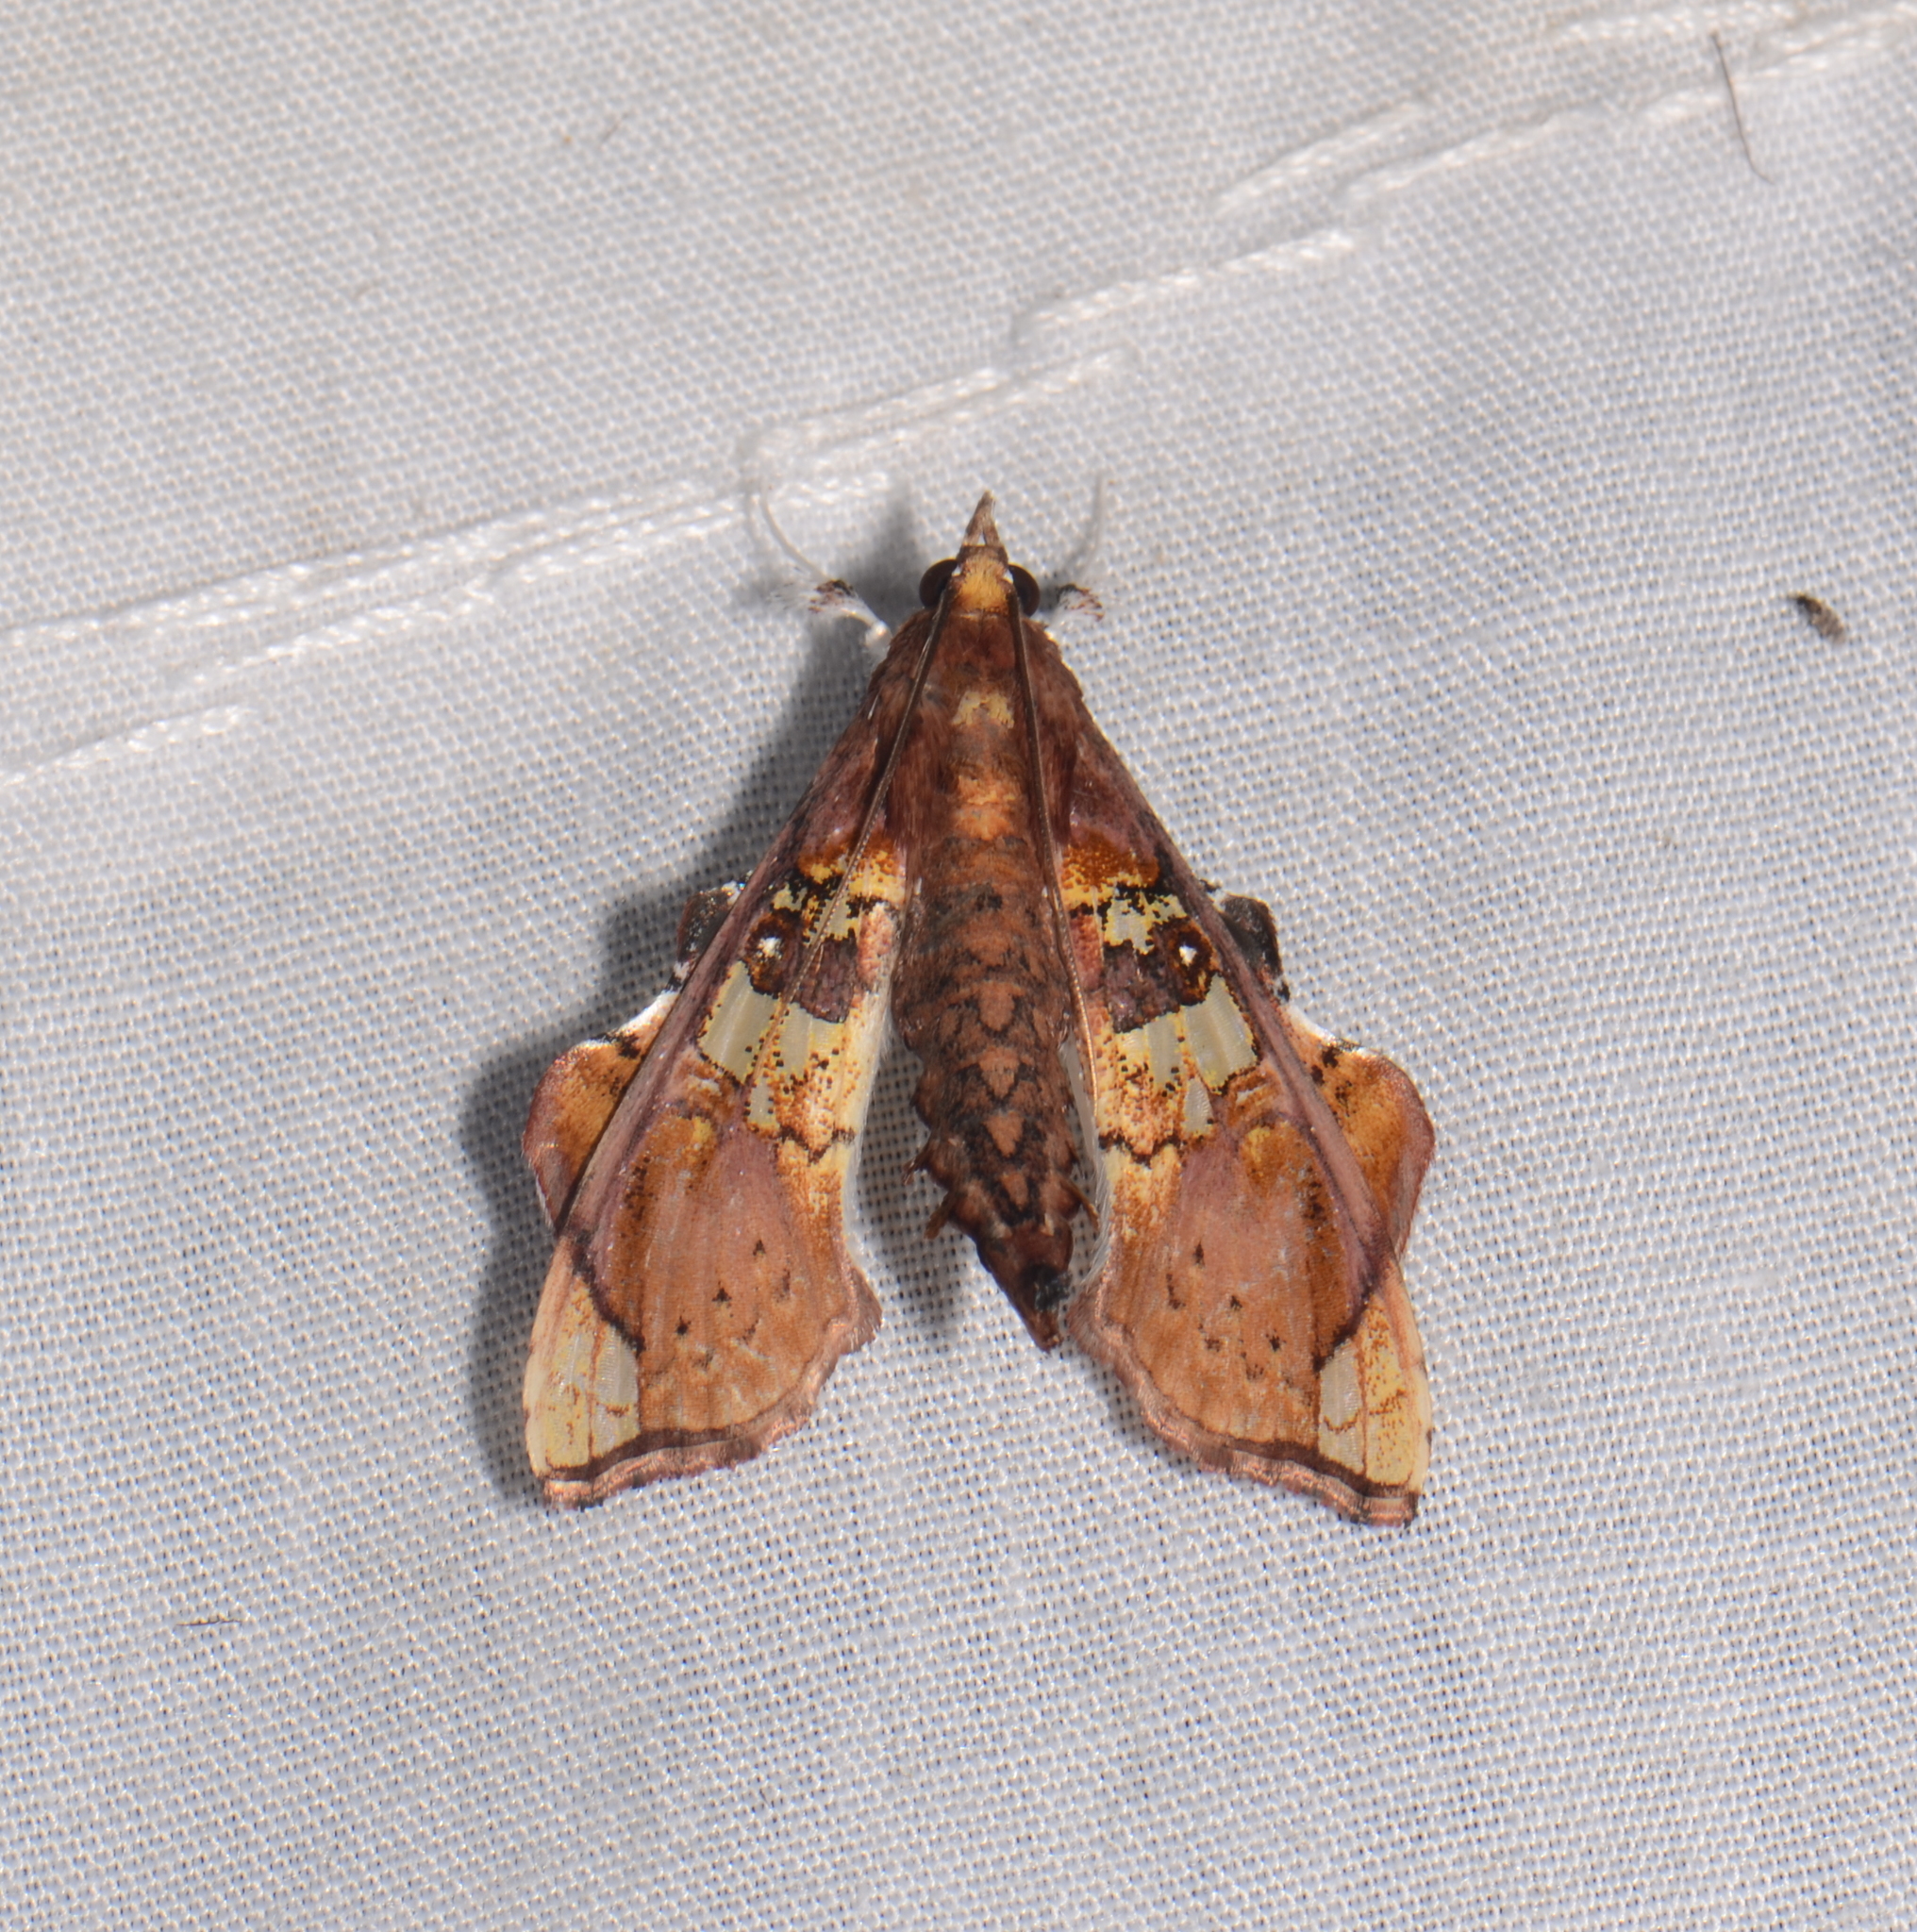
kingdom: Animalia
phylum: Arthropoda
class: Insecta
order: Lepidoptera
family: Crambidae
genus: Terastia
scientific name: Terastia egialealis
